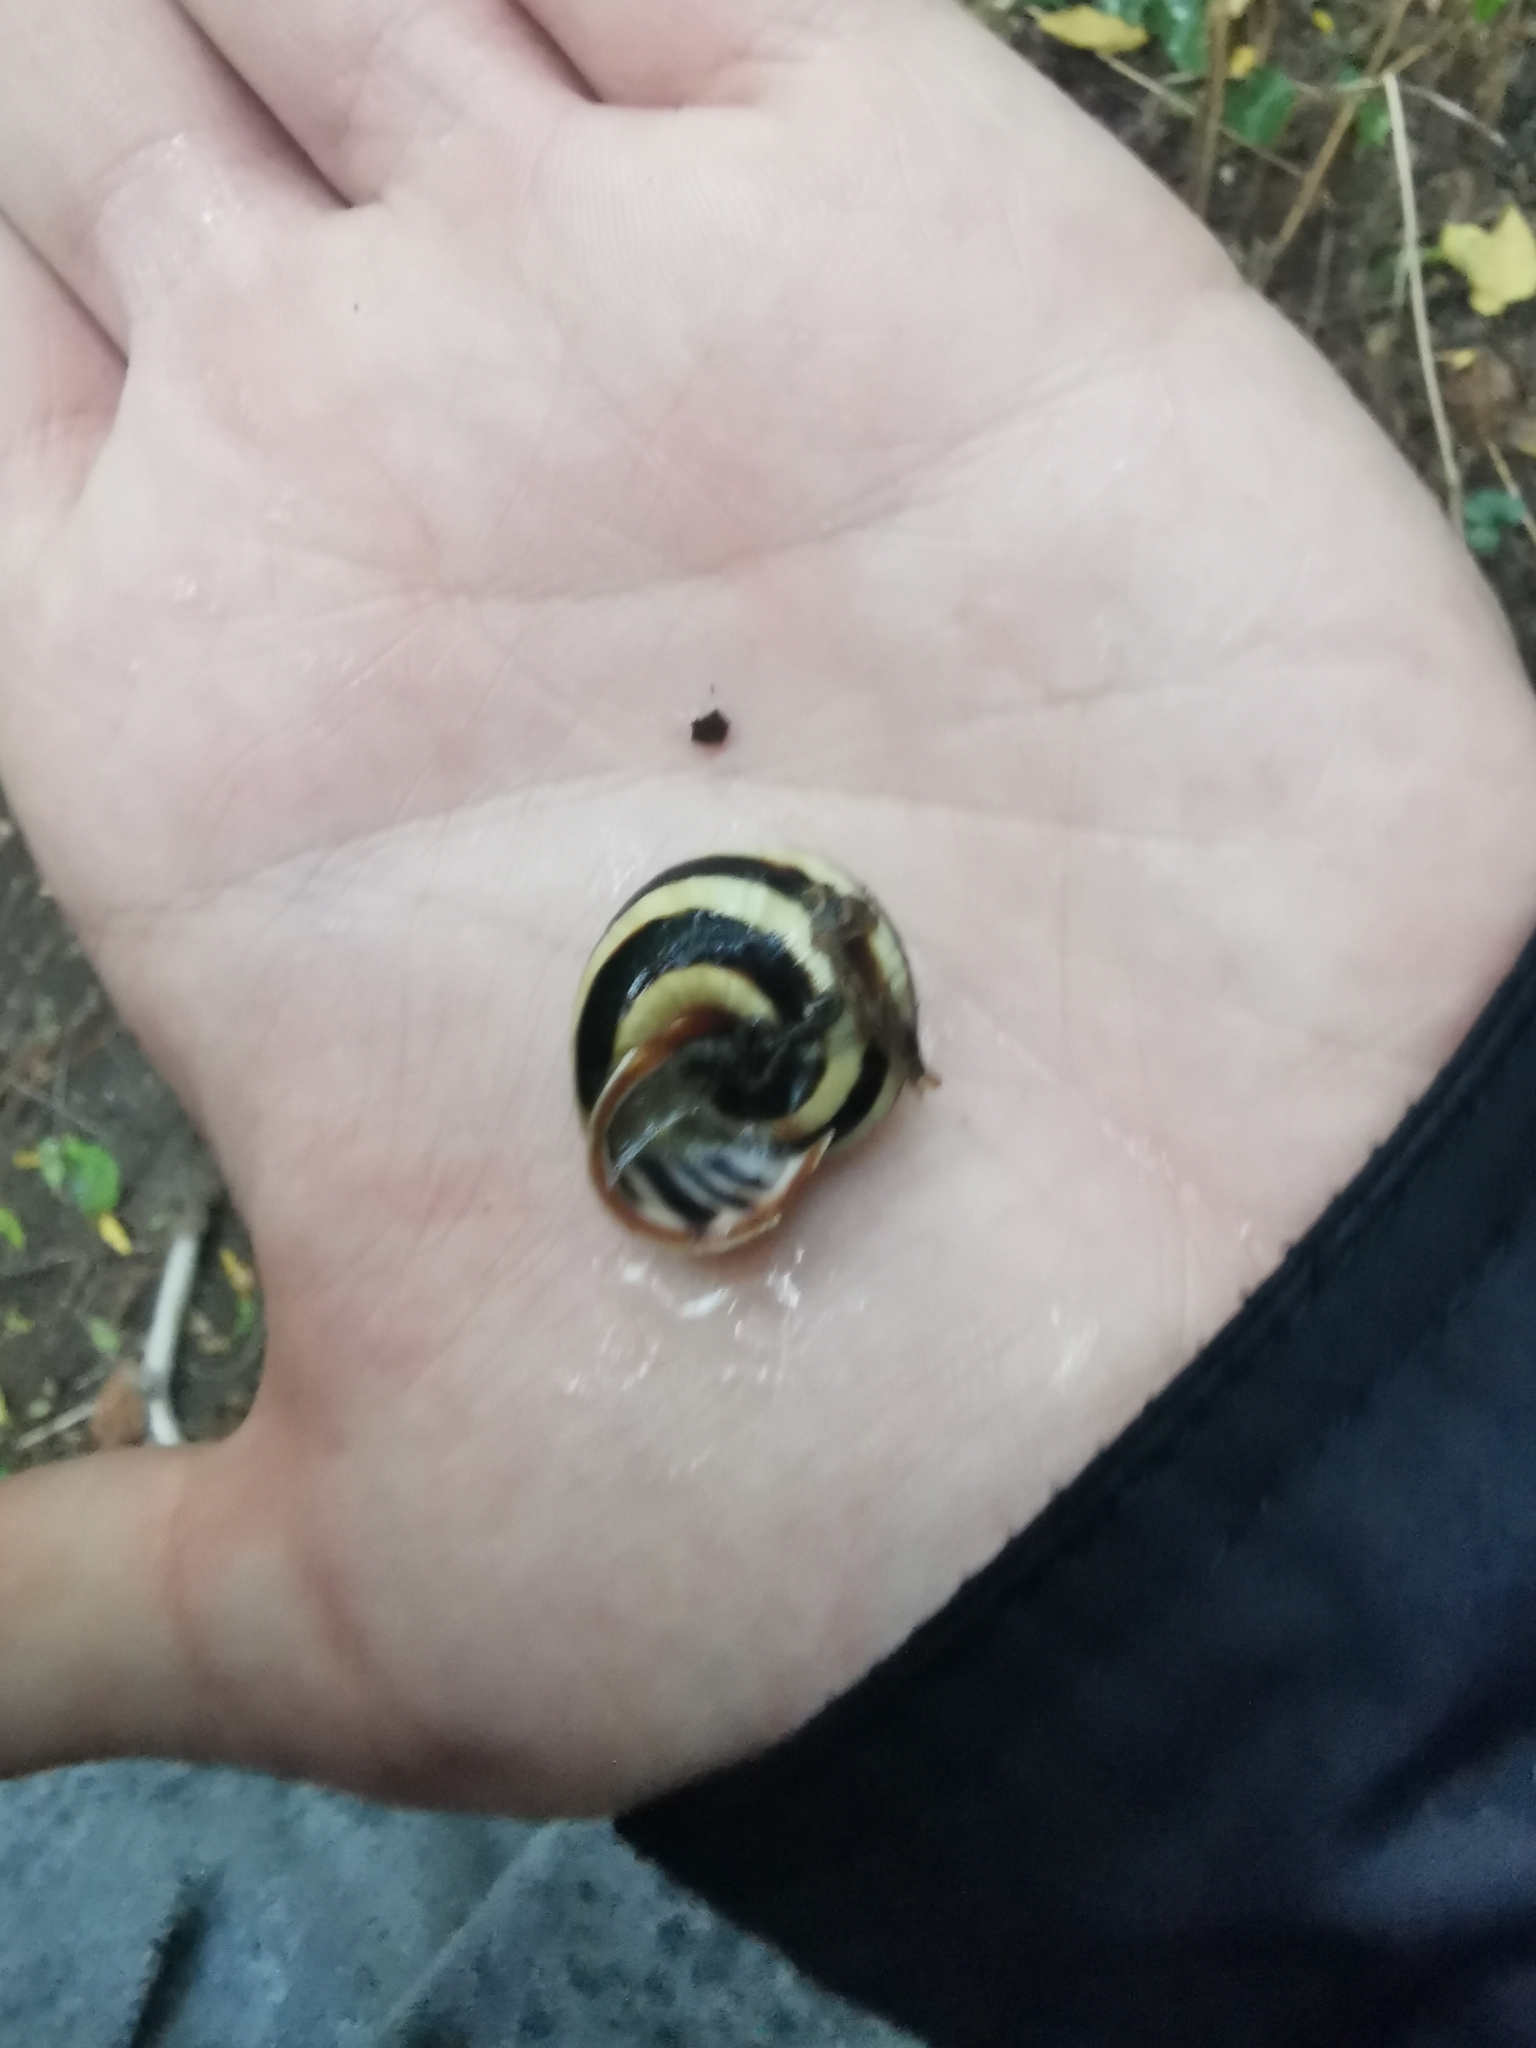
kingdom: Animalia
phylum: Mollusca
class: Gastropoda
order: Stylommatophora
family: Helicidae
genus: Caucasotachea
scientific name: Caucasotachea vindobonensis
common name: European helicid land snail
